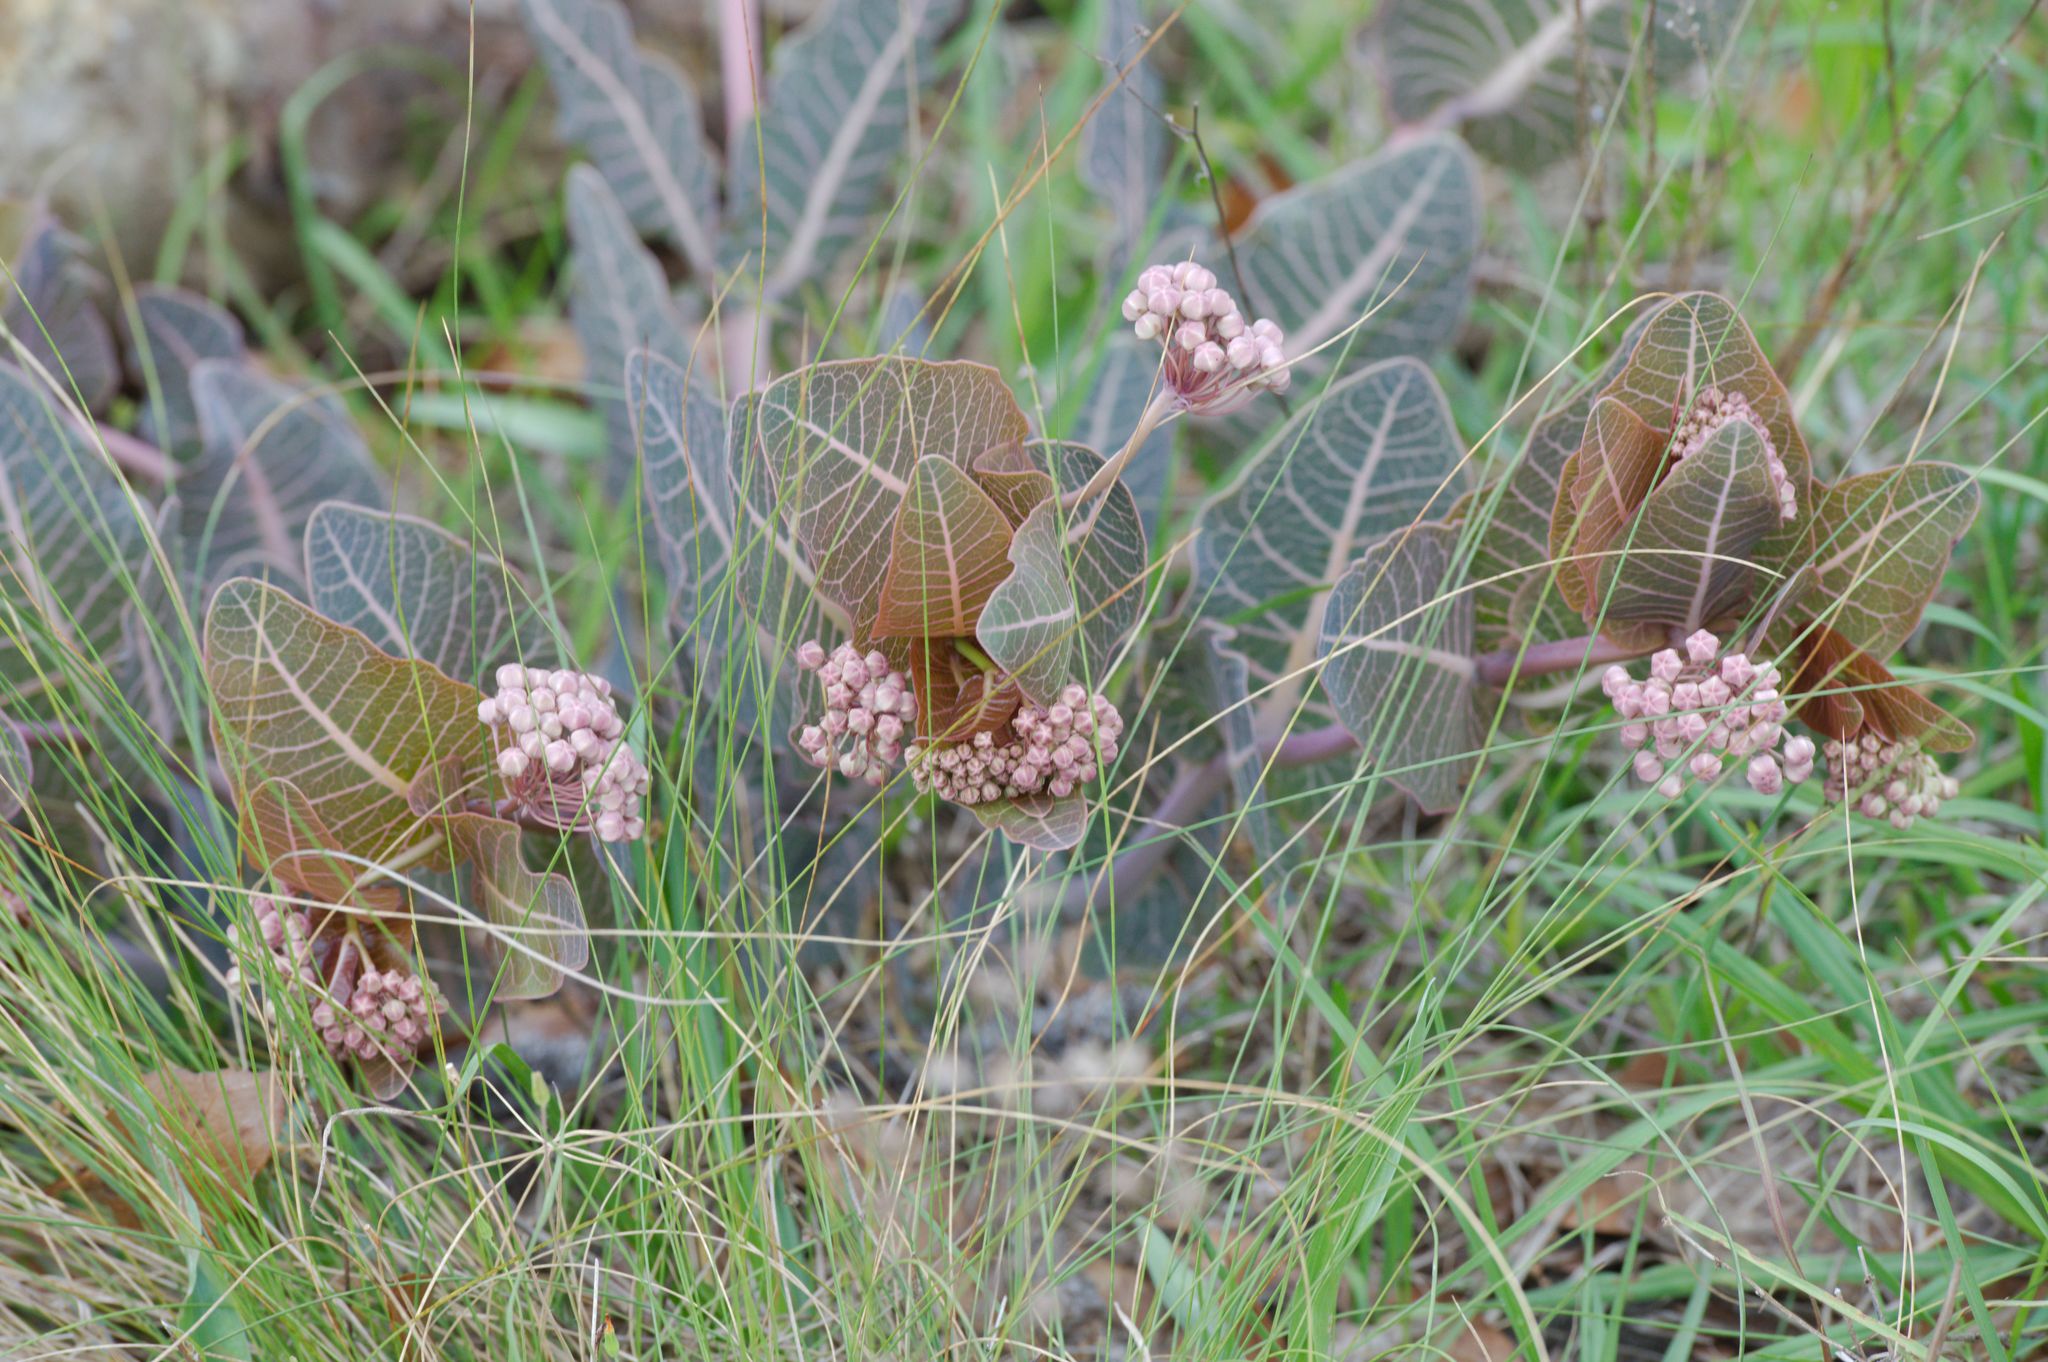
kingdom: Plantae
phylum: Tracheophyta
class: Magnoliopsida
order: Gentianales
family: Apocynaceae
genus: Asclepias
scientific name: Asclepias humistrata
